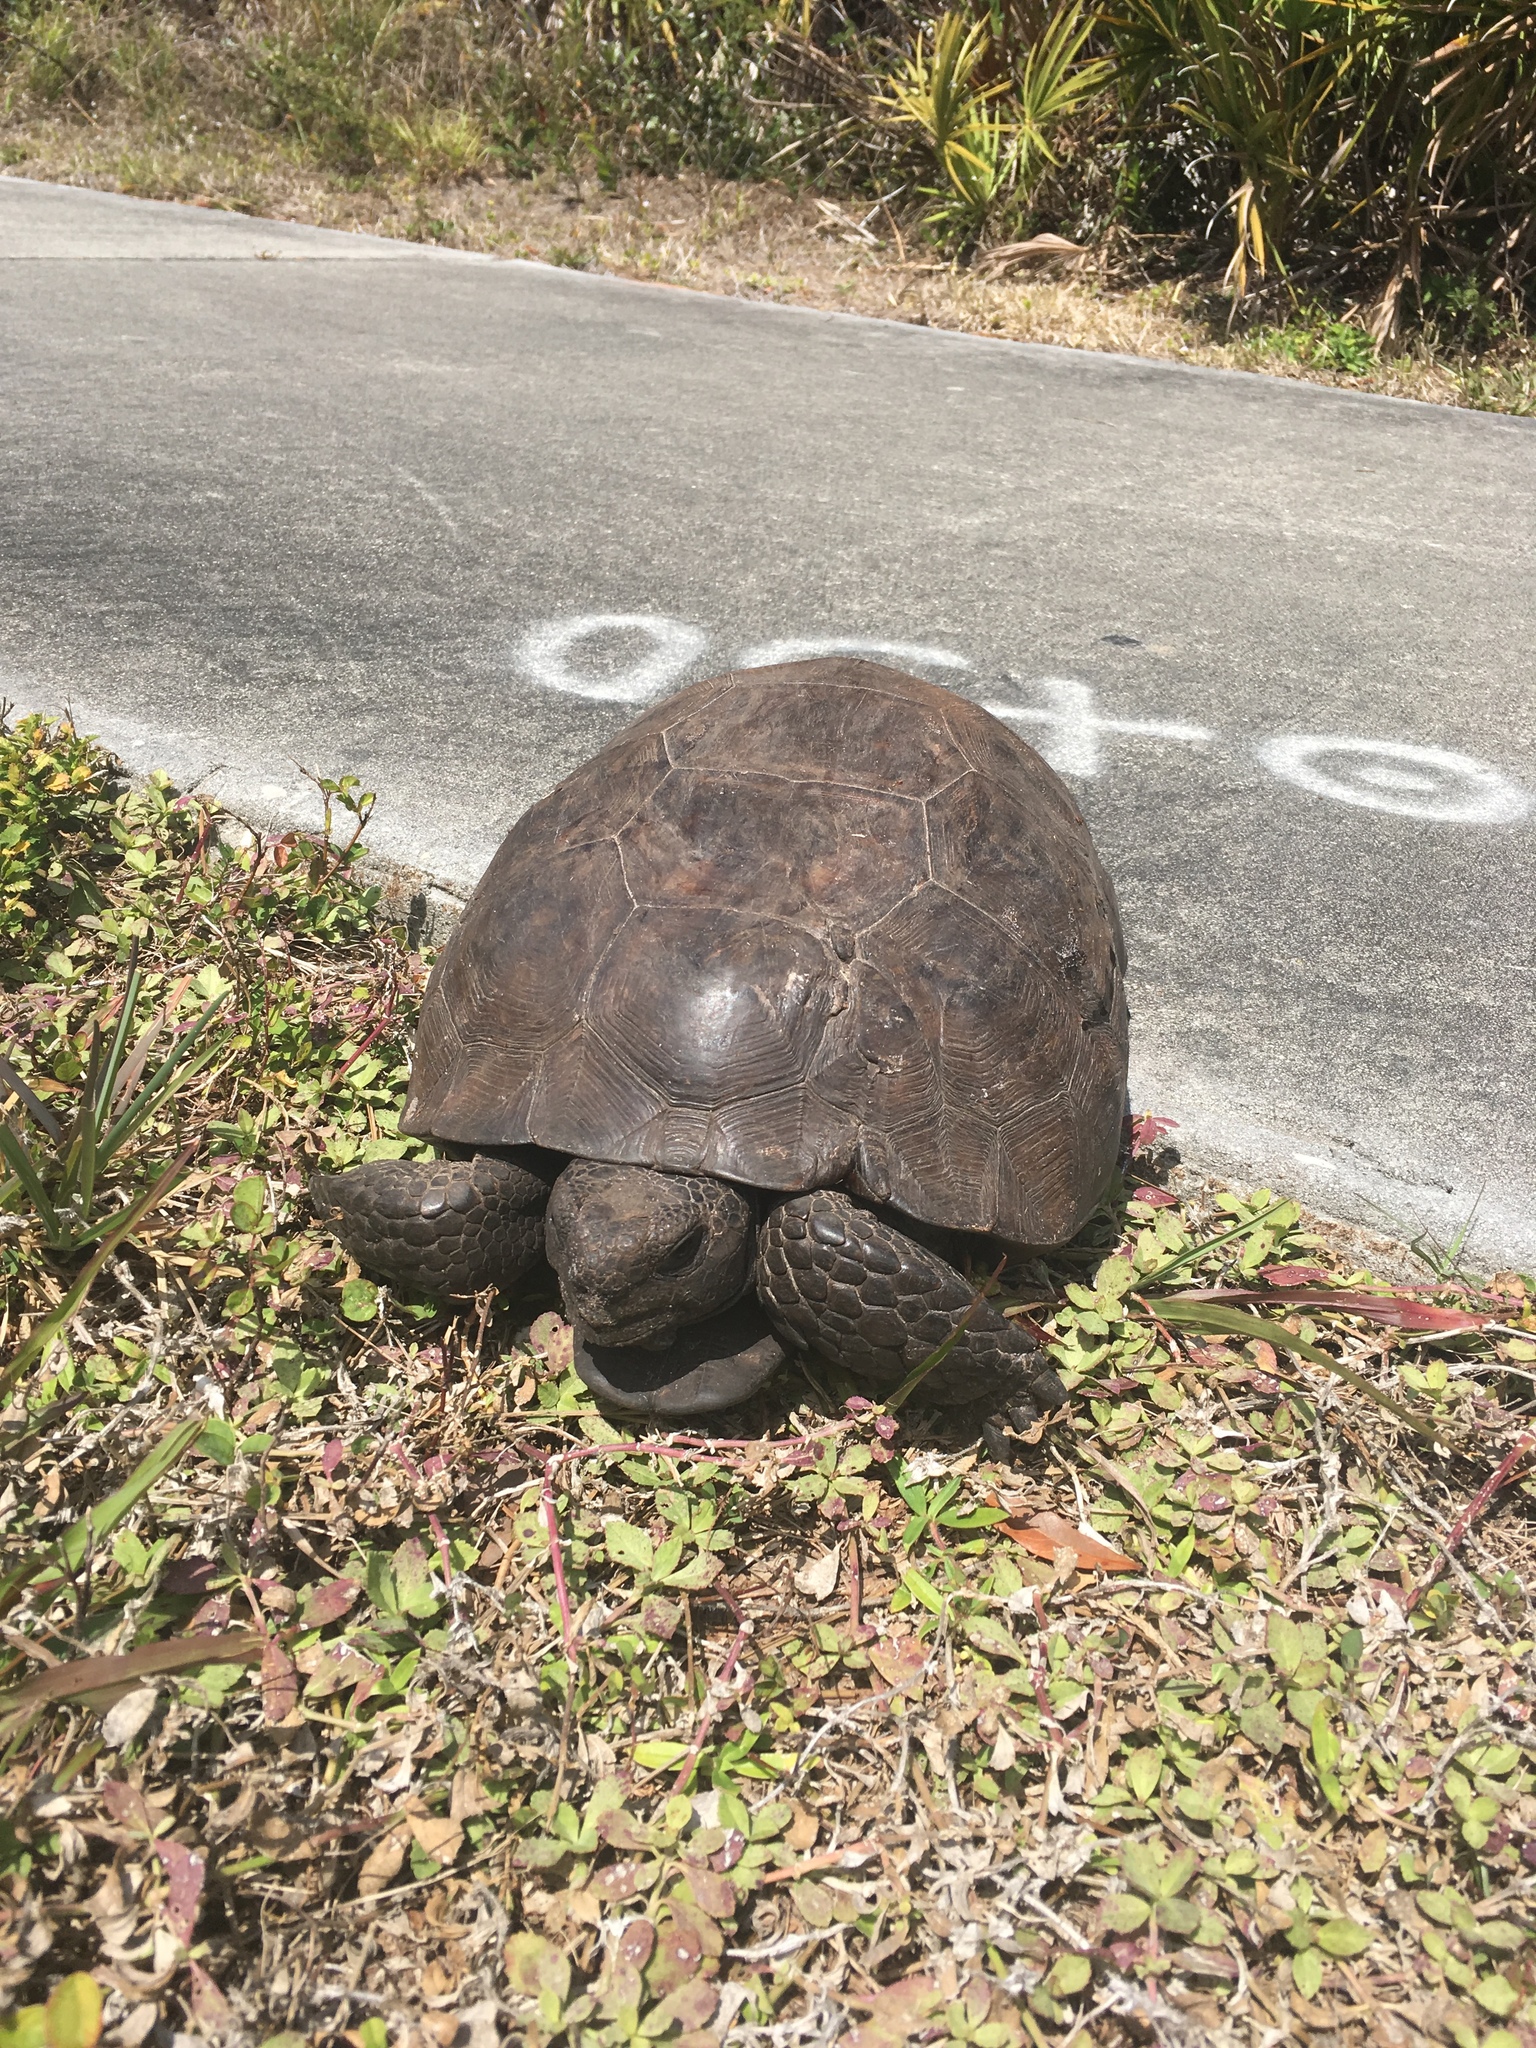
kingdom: Animalia
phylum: Chordata
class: Testudines
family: Testudinidae
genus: Gopherus
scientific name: Gopherus polyphemus
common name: Florida gopher tortoise
